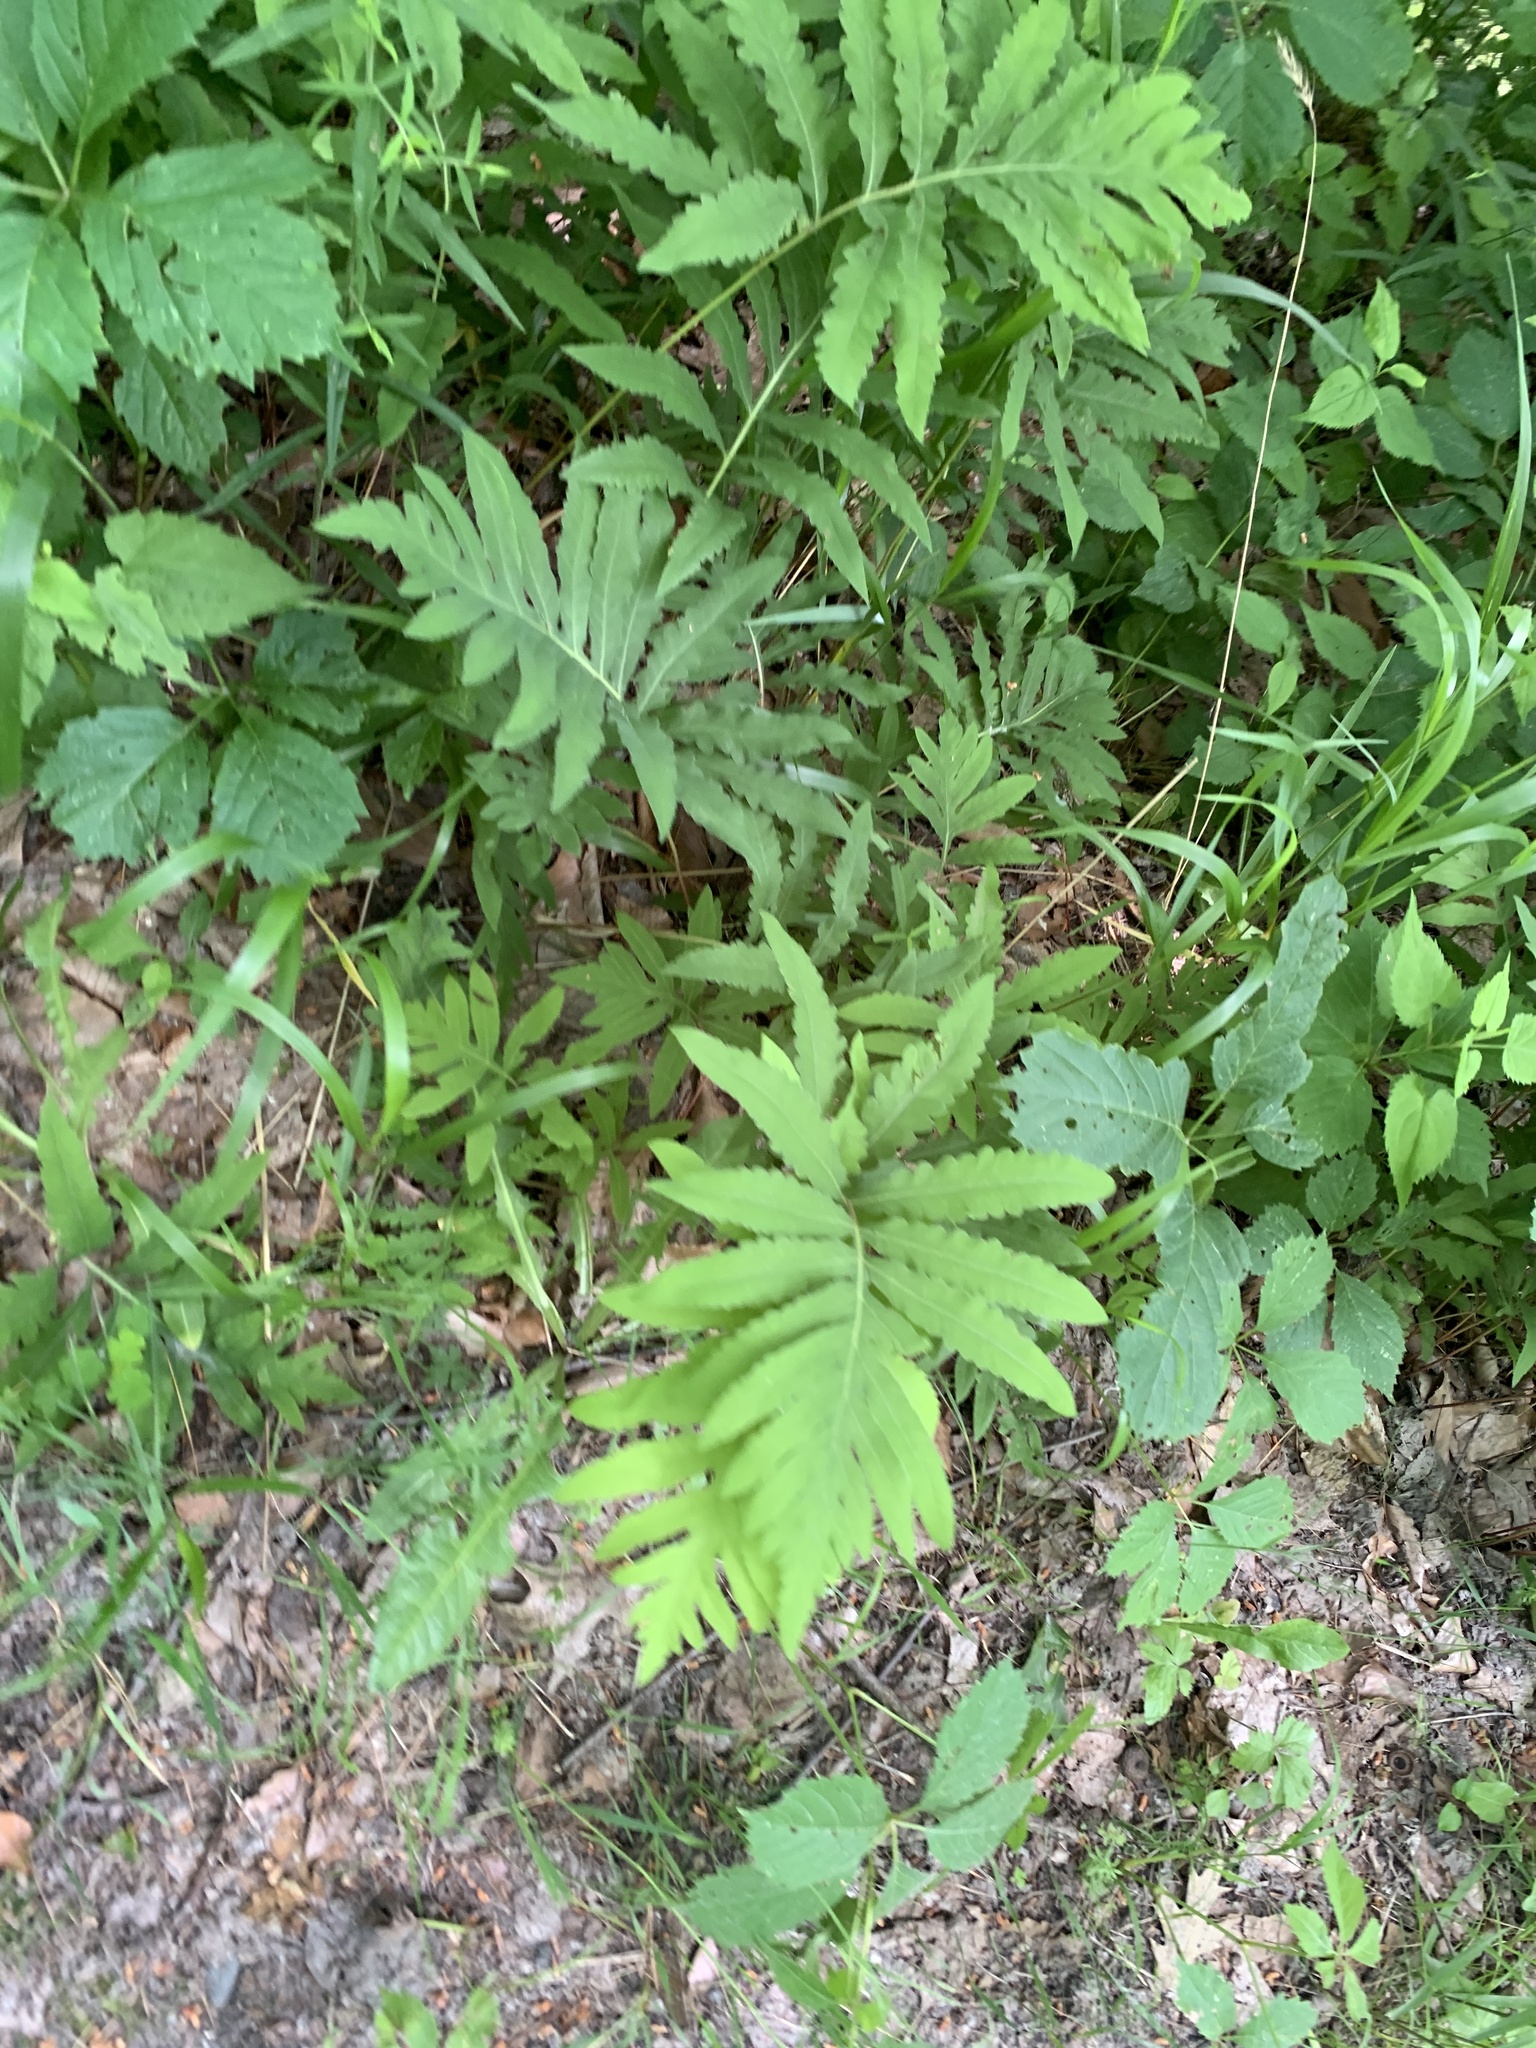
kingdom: Plantae
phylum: Tracheophyta
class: Polypodiopsida
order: Polypodiales
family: Onocleaceae
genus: Onoclea
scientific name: Onoclea sensibilis
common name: Sensitive fern
